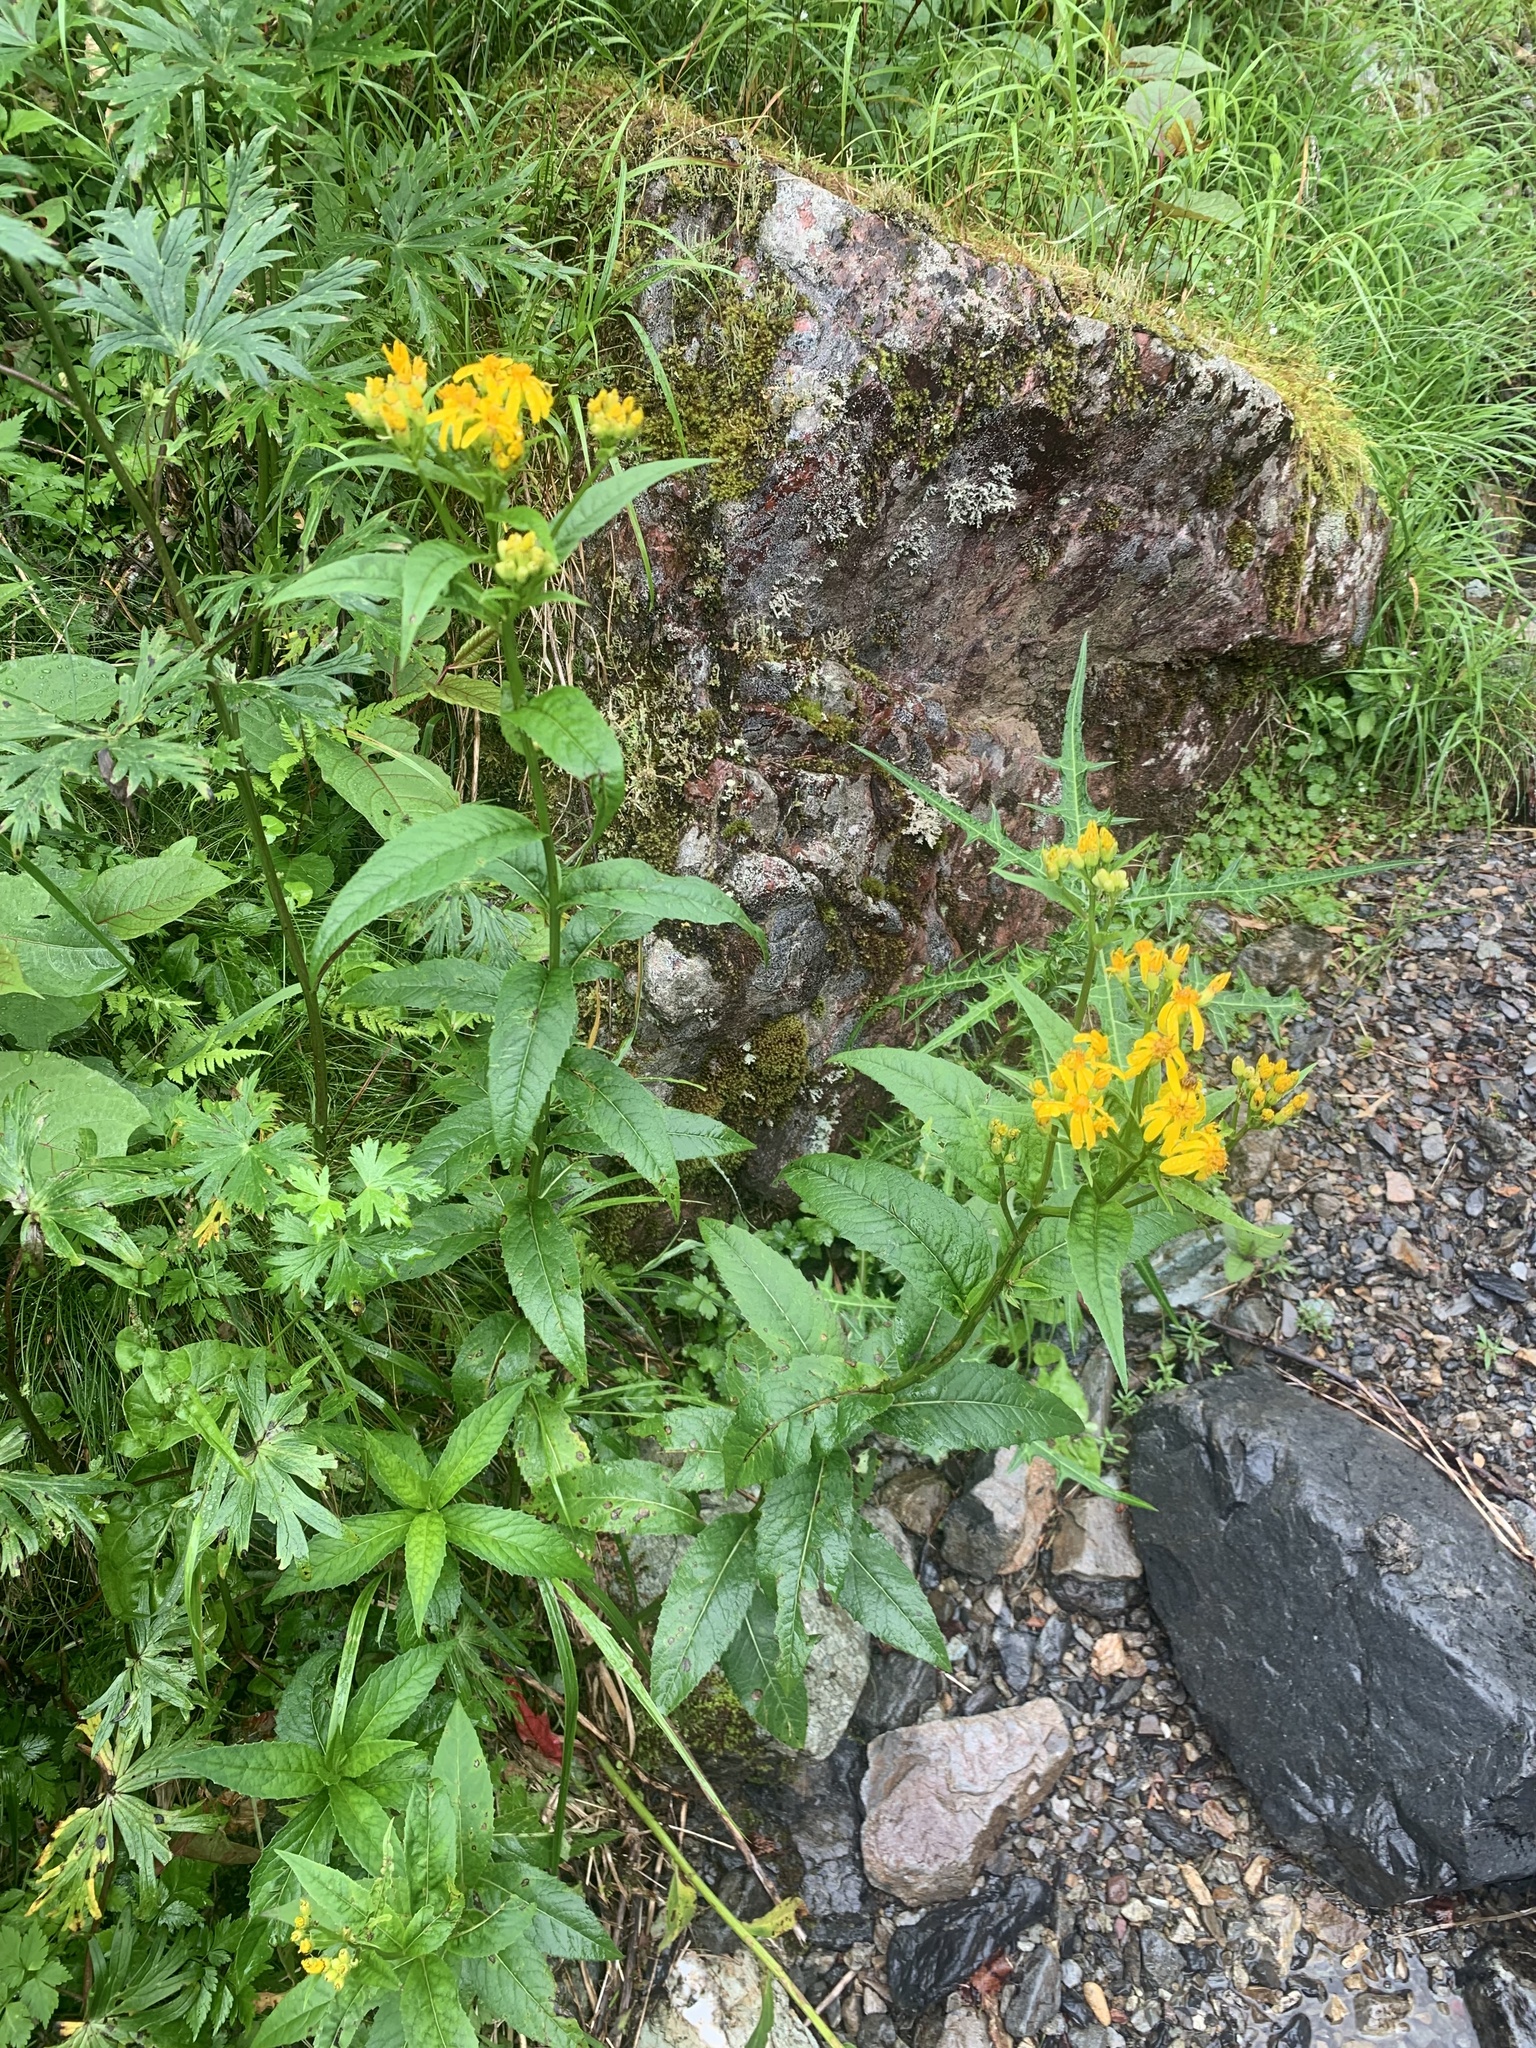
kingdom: Plantae
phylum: Tracheophyta
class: Magnoliopsida
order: Asterales
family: Asteraceae
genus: Senecio
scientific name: Senecio nemorensis
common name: Alpine ragwort
